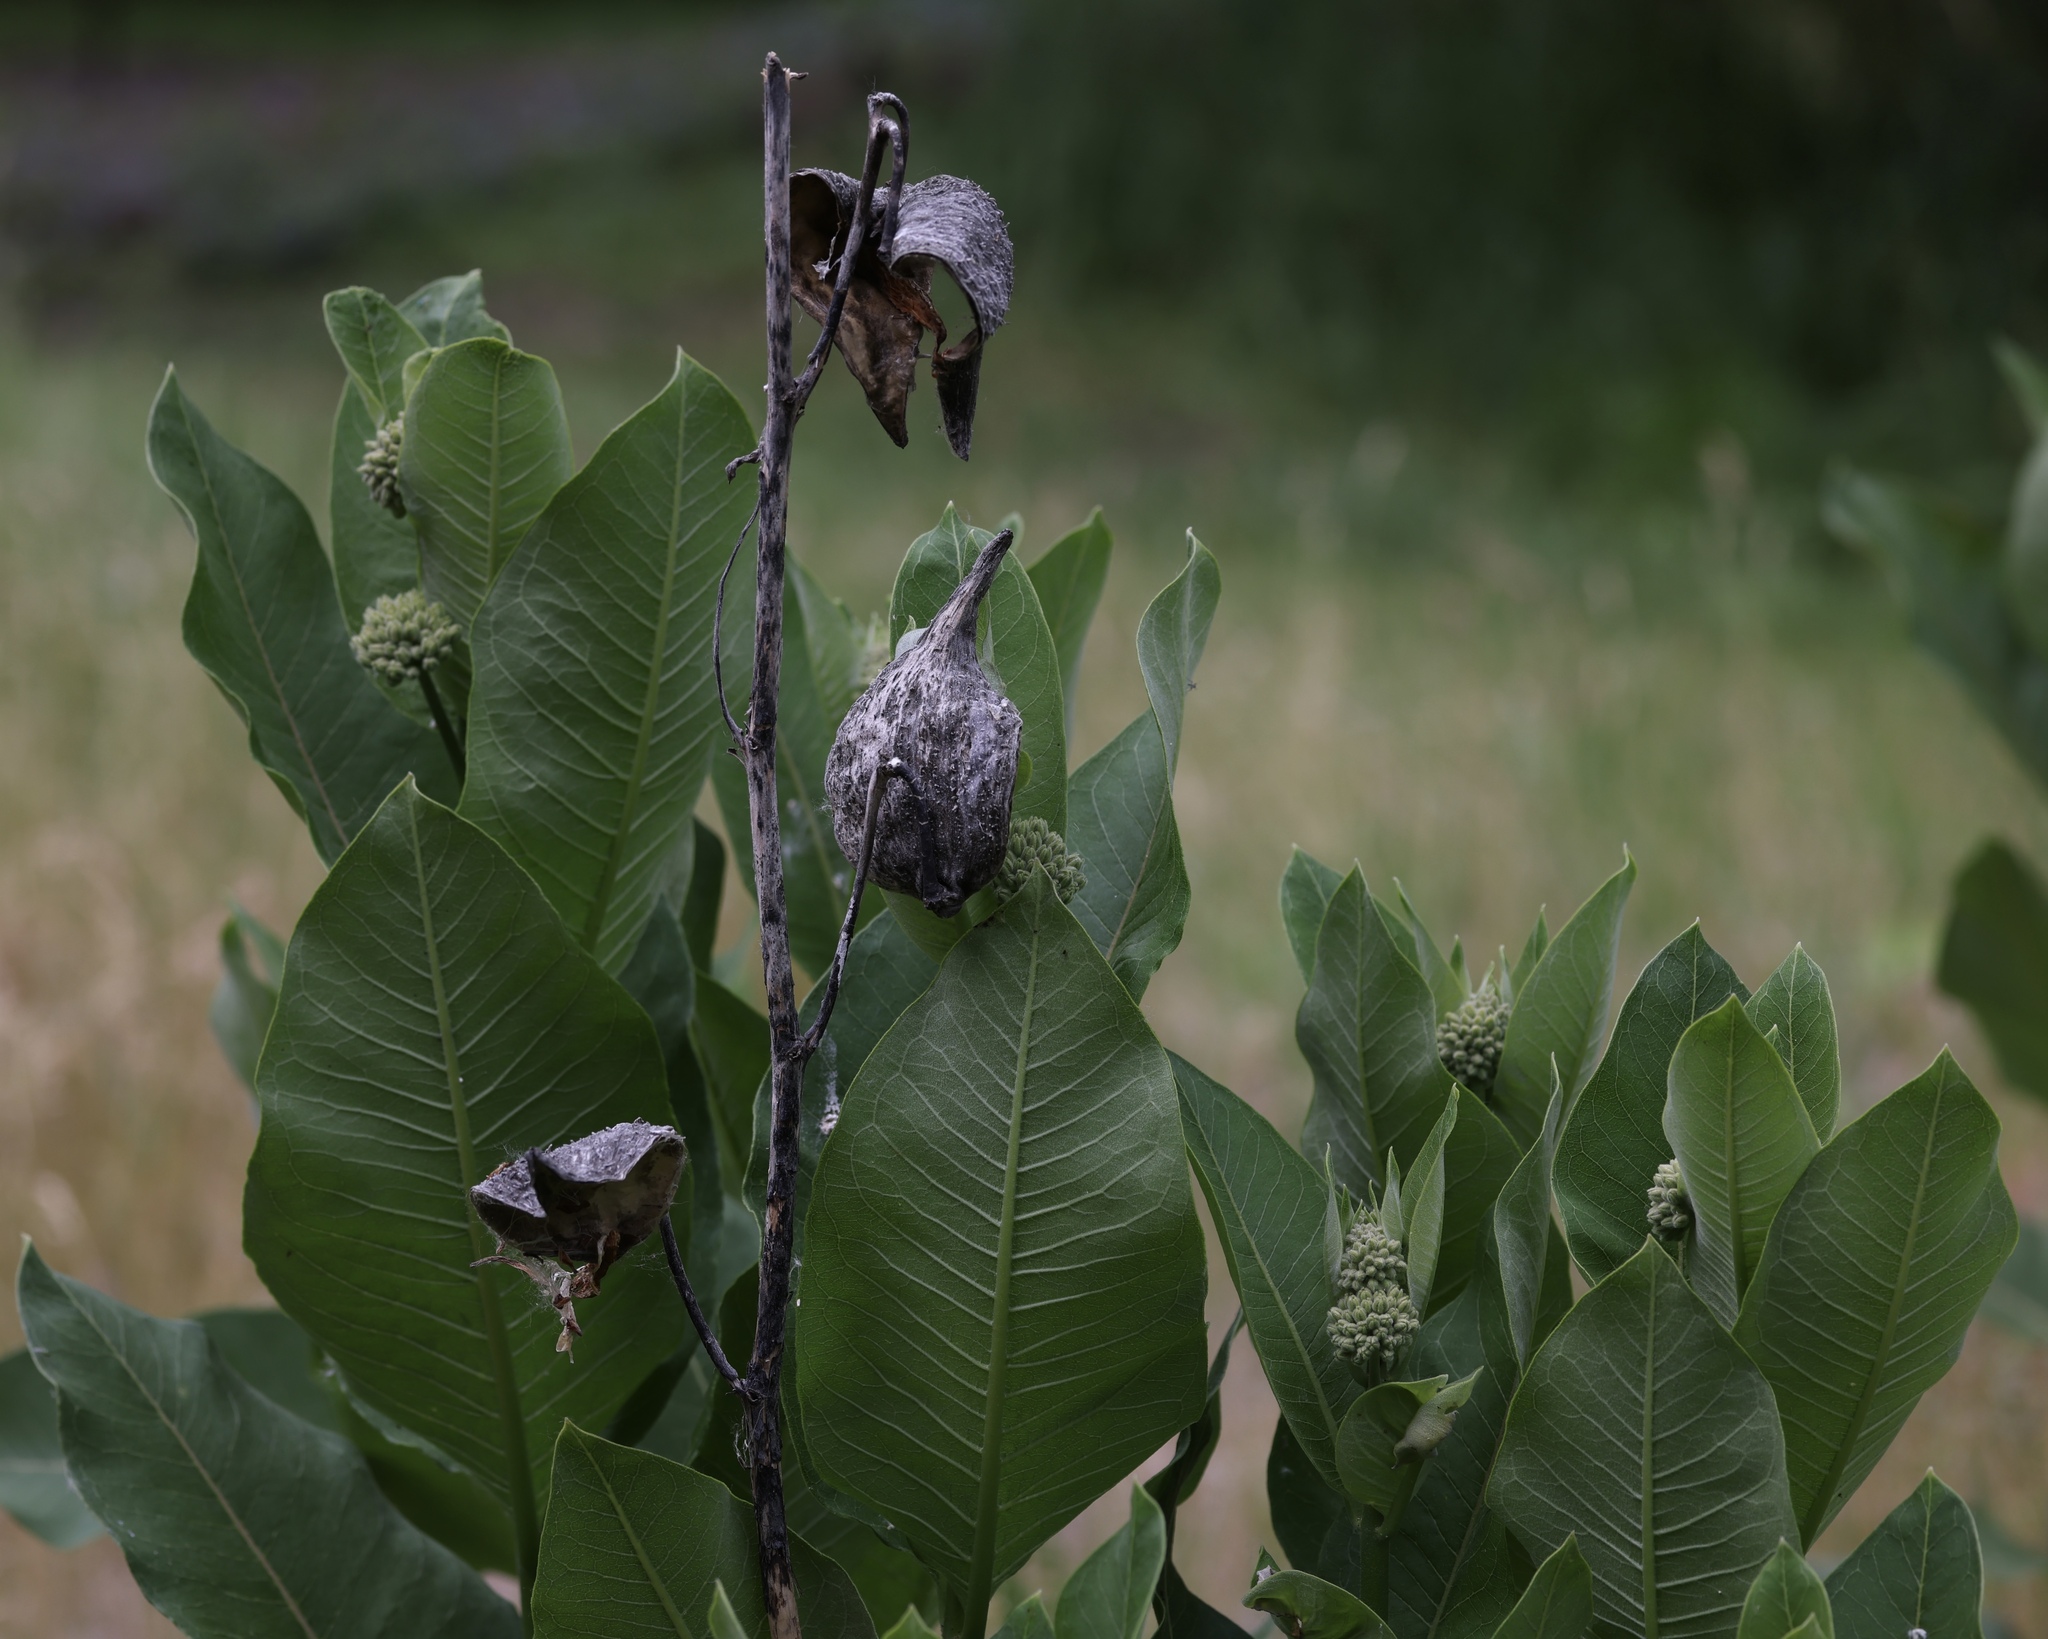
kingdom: Plantae
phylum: Tracheophyta
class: Magnoliopsida
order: Gentianales
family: Apocynaceae
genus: Asclepias
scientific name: Asclepias syriaca
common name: Common milkweed
